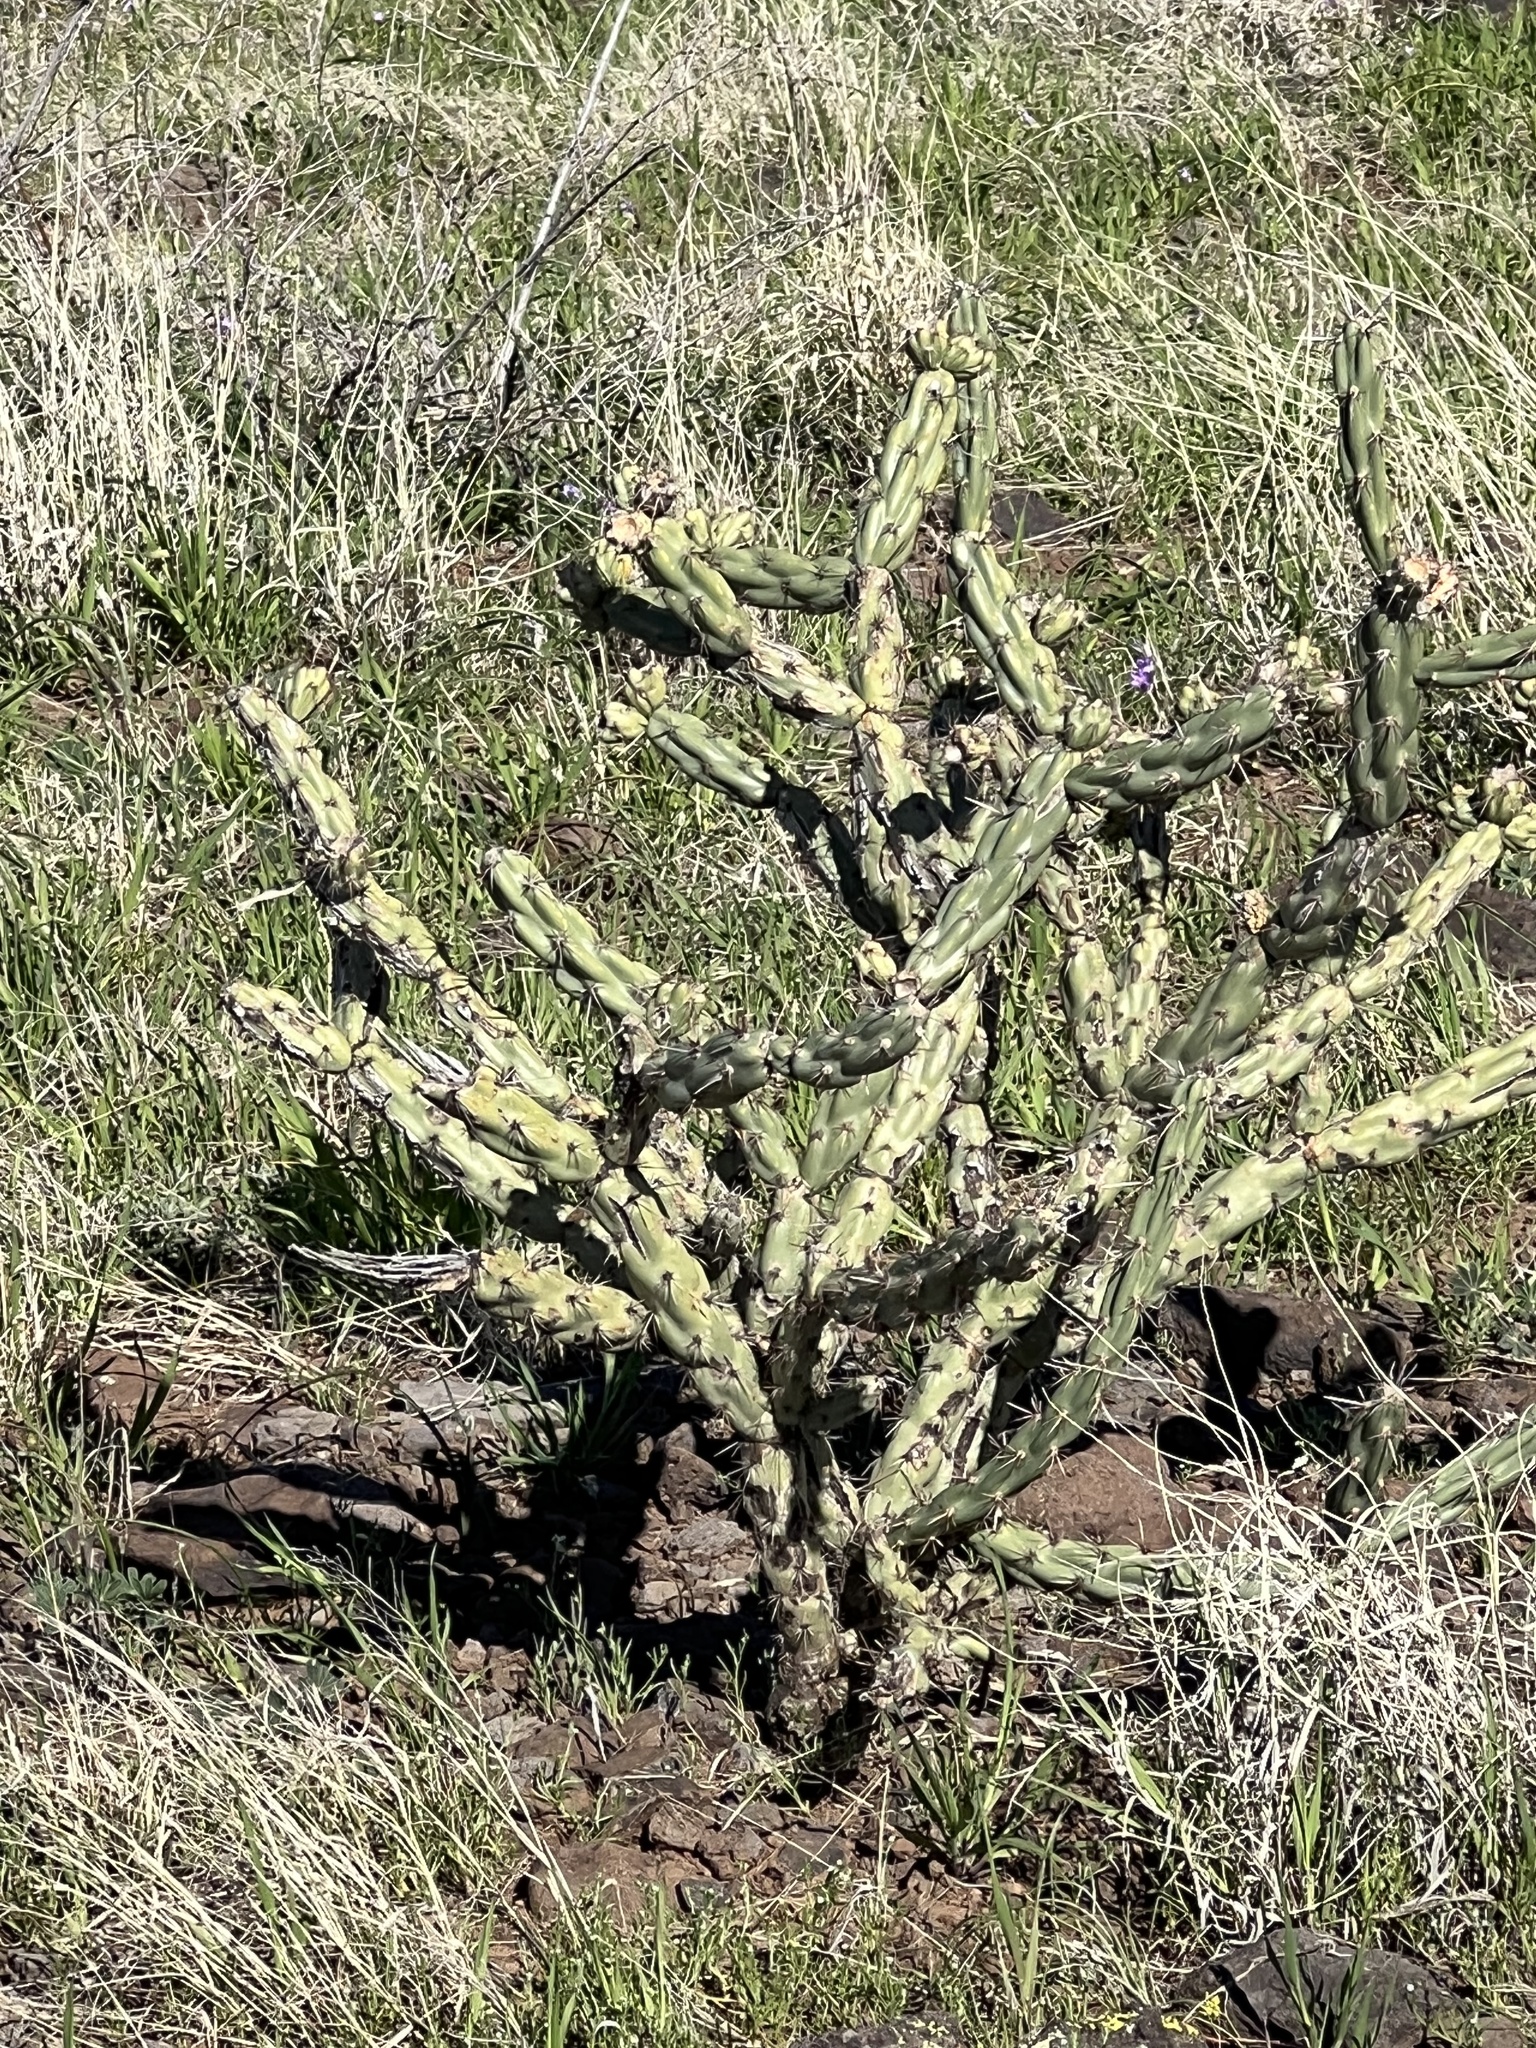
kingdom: Plantae
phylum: Tracheophyta
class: Magnoliopsida
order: Caryophyllales
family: Cactaceae
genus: Cylindropuntia
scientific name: Cylindropuntia acanthocarpa
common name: Buckhorn cholla
